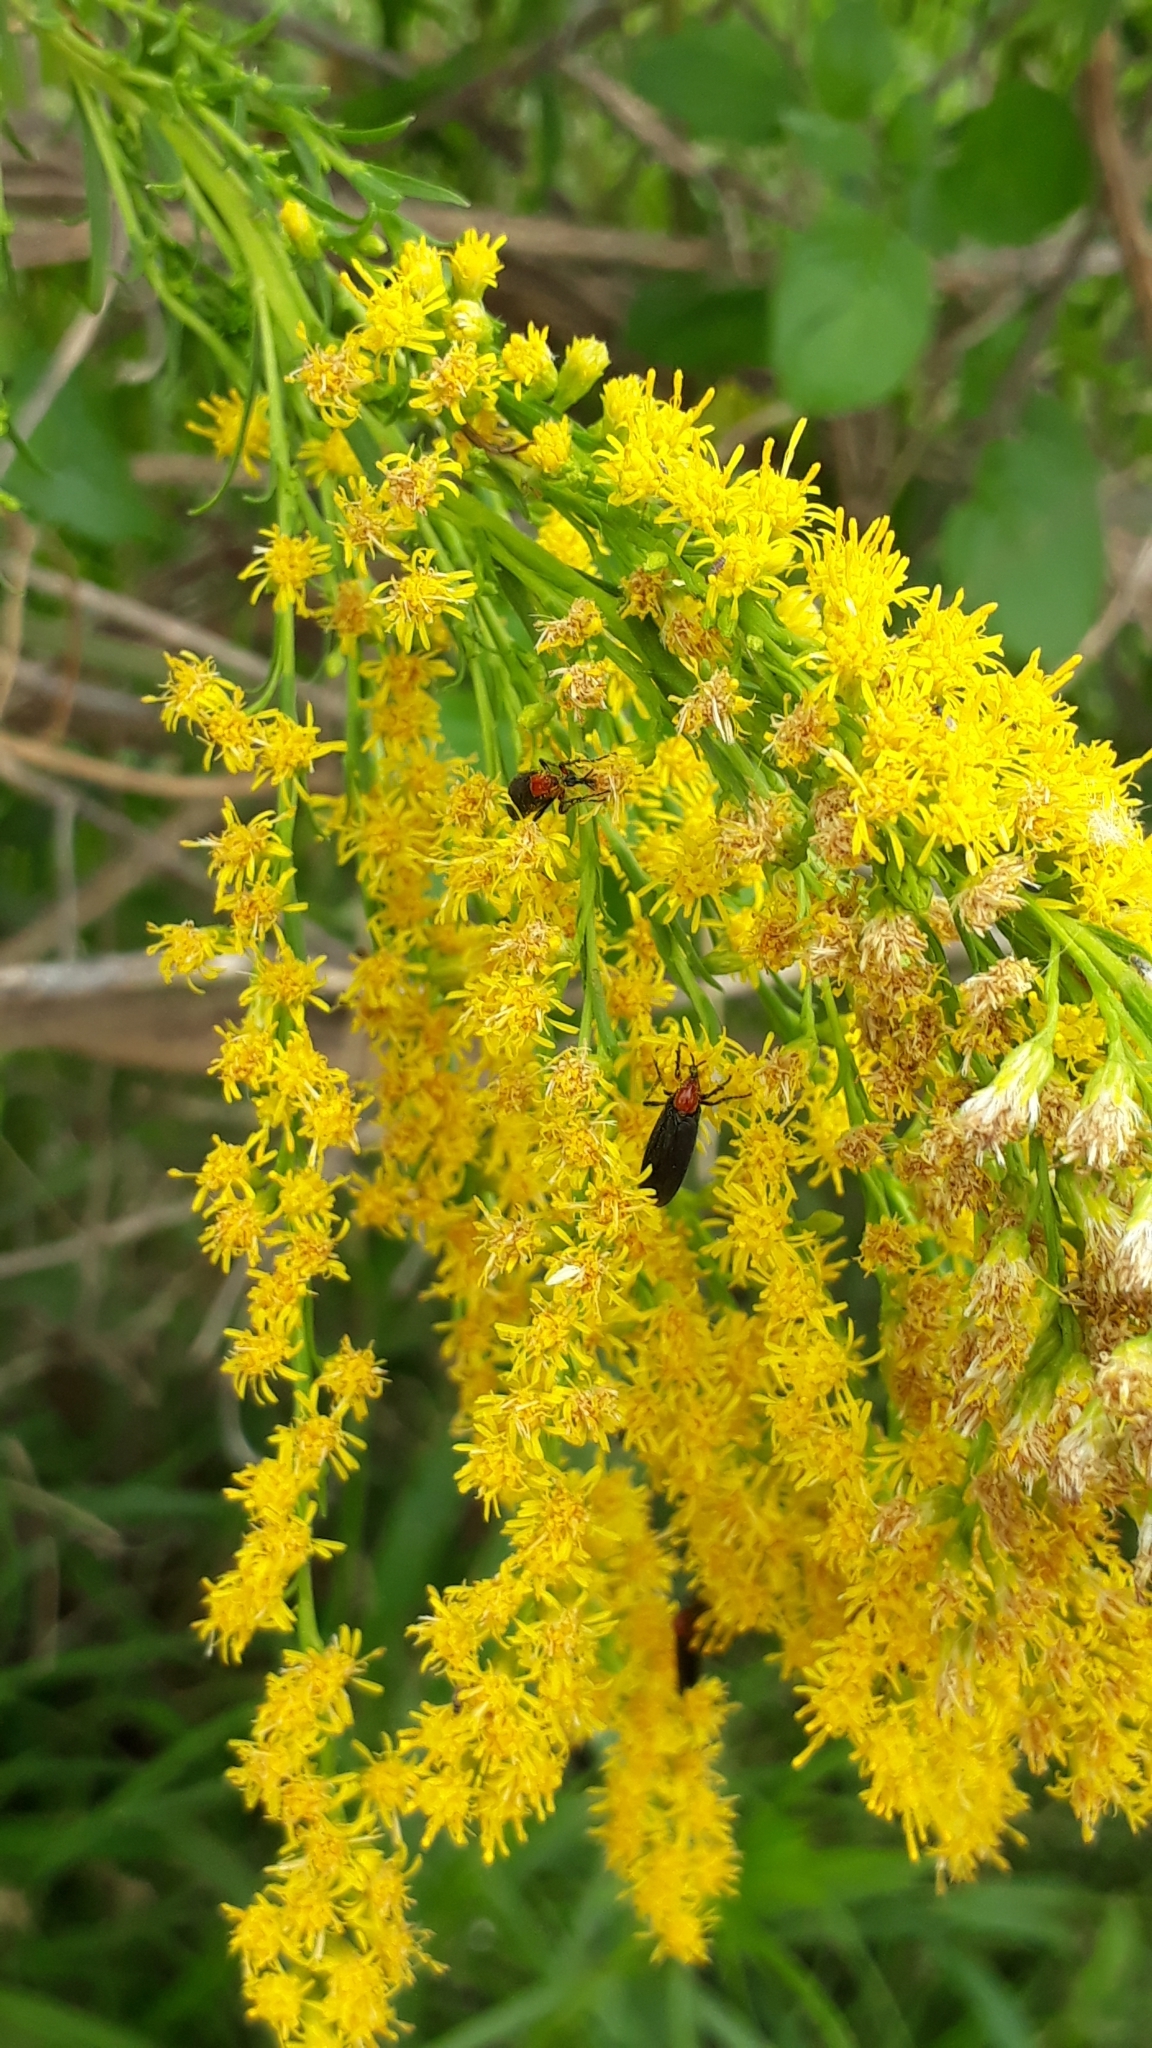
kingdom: Plantae
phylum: Tracheophyta
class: Magnoliopsida
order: Asterales
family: Asteraceae
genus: Solidago
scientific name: Solidago chilensis
